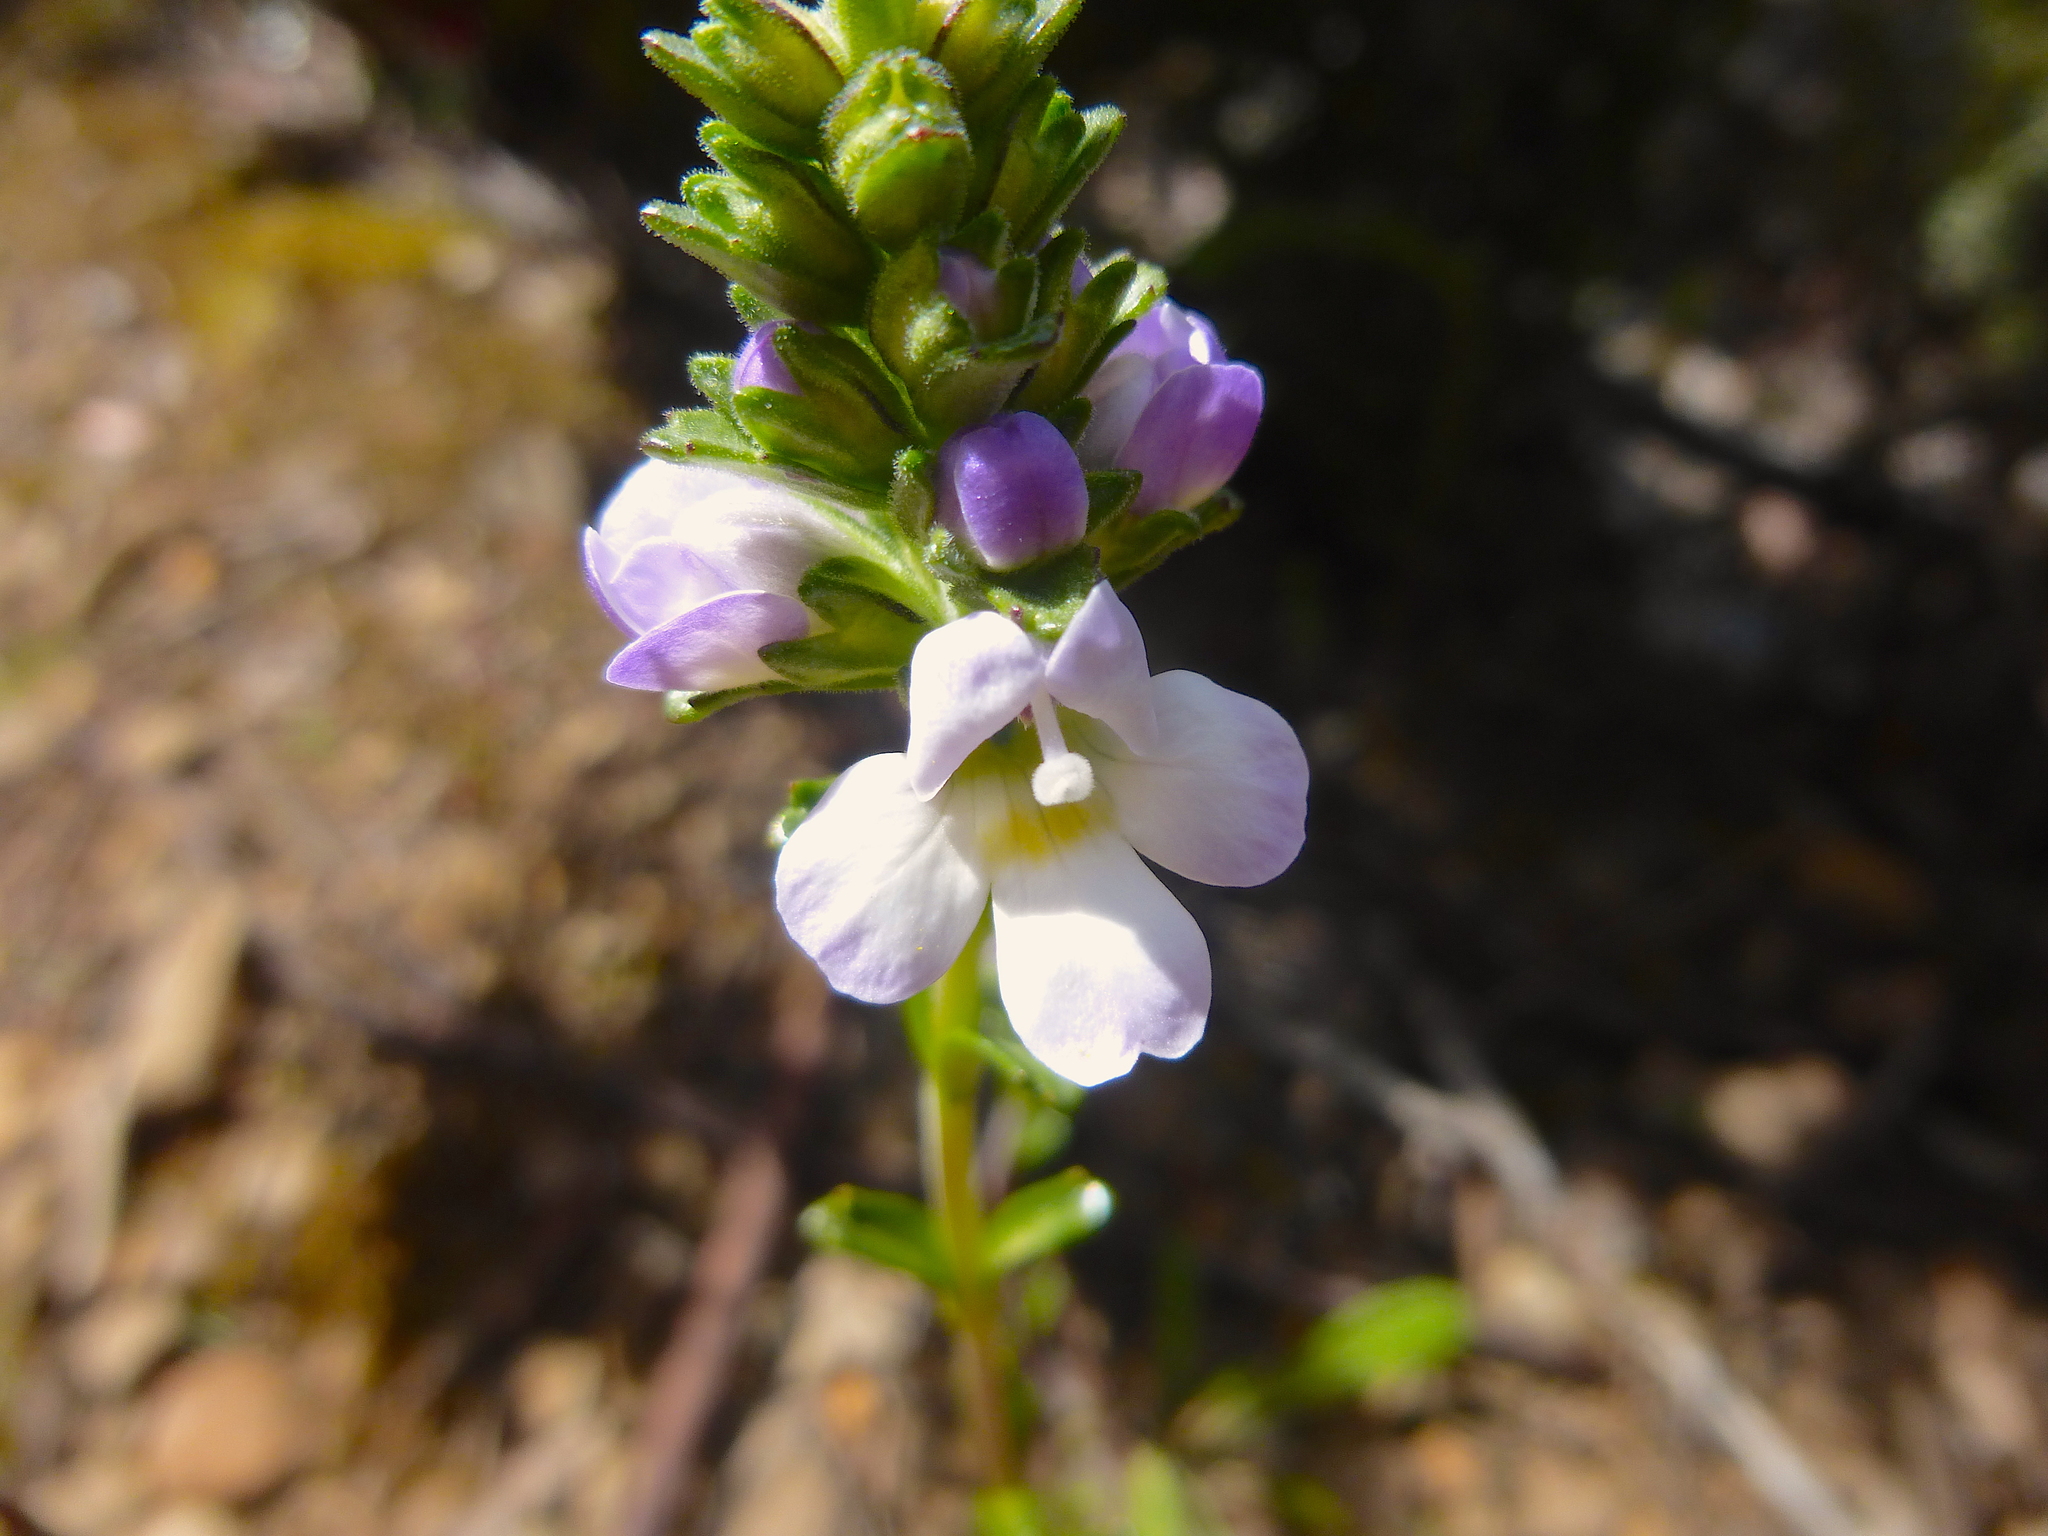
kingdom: Plantae
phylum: Tracheophyta
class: Magnoliopsida
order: Lamiales
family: Orobanchaceae
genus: Euphrasia
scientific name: Euphrasia collina
